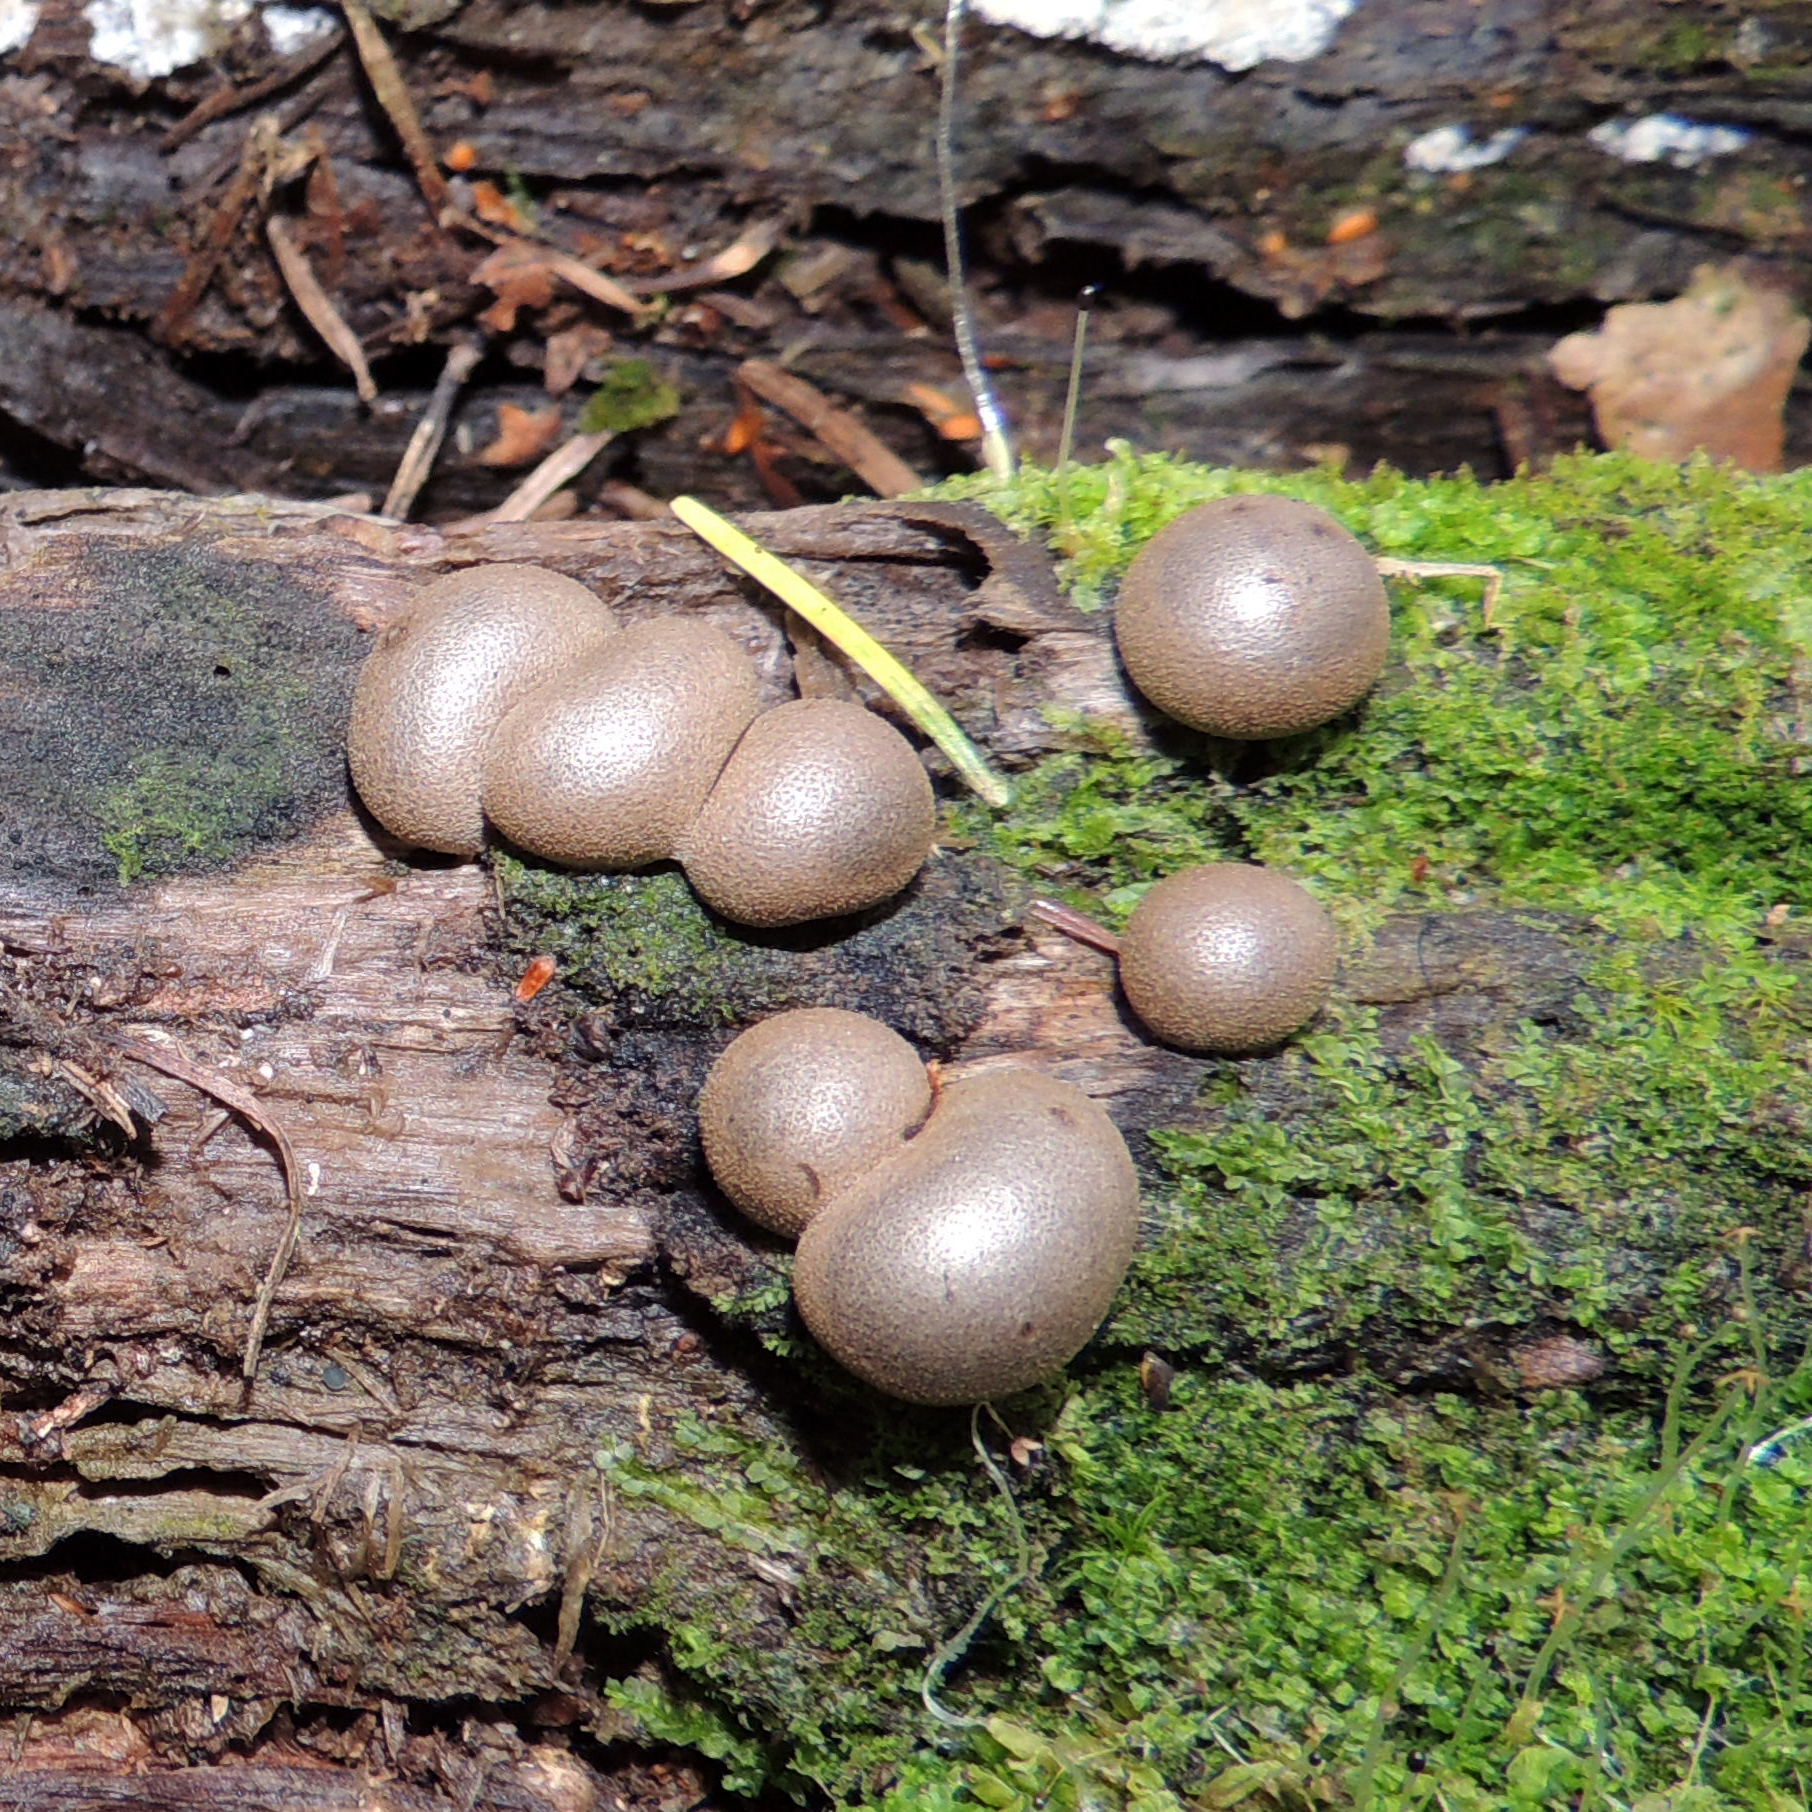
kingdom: Protozoa
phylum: Mycetozoa
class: Myxomycetes
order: Cribrariales
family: Tubiferaceae
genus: Lycogala
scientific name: Lycogala epidendrum
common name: Wolf's milk
